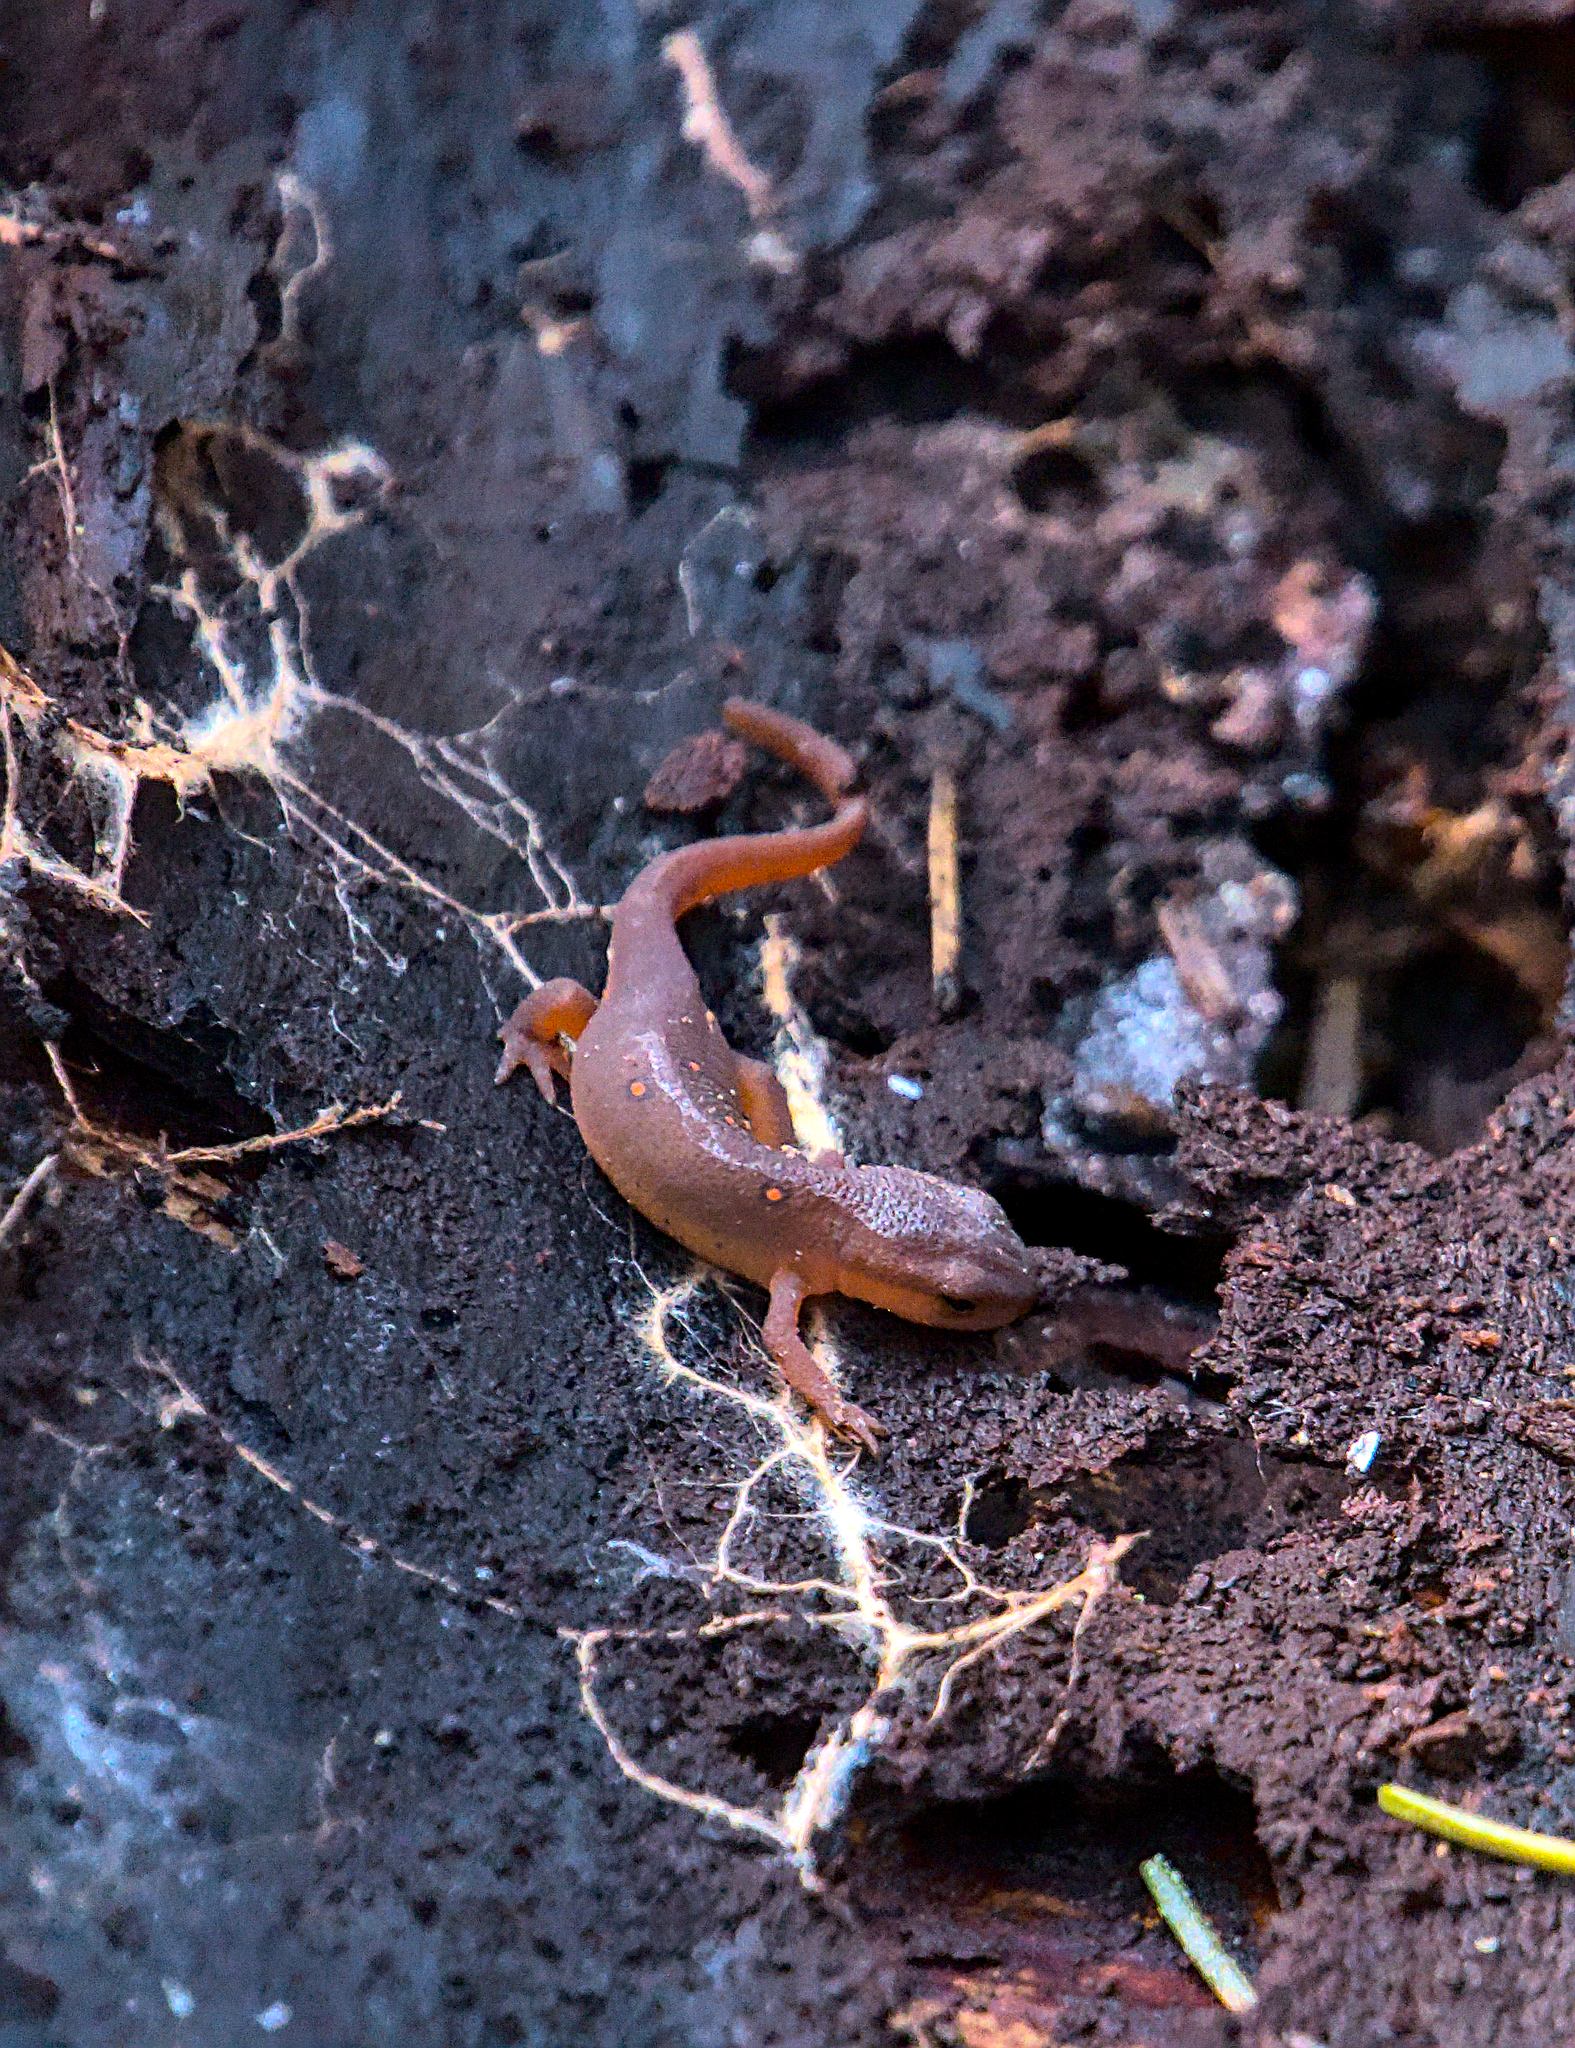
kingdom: Animalia
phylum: Chordata
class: Amphibia
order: Caudata
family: Salamandridae
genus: Notophthalmus
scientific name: Notophthalmus viridescens
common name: Eastern newt
